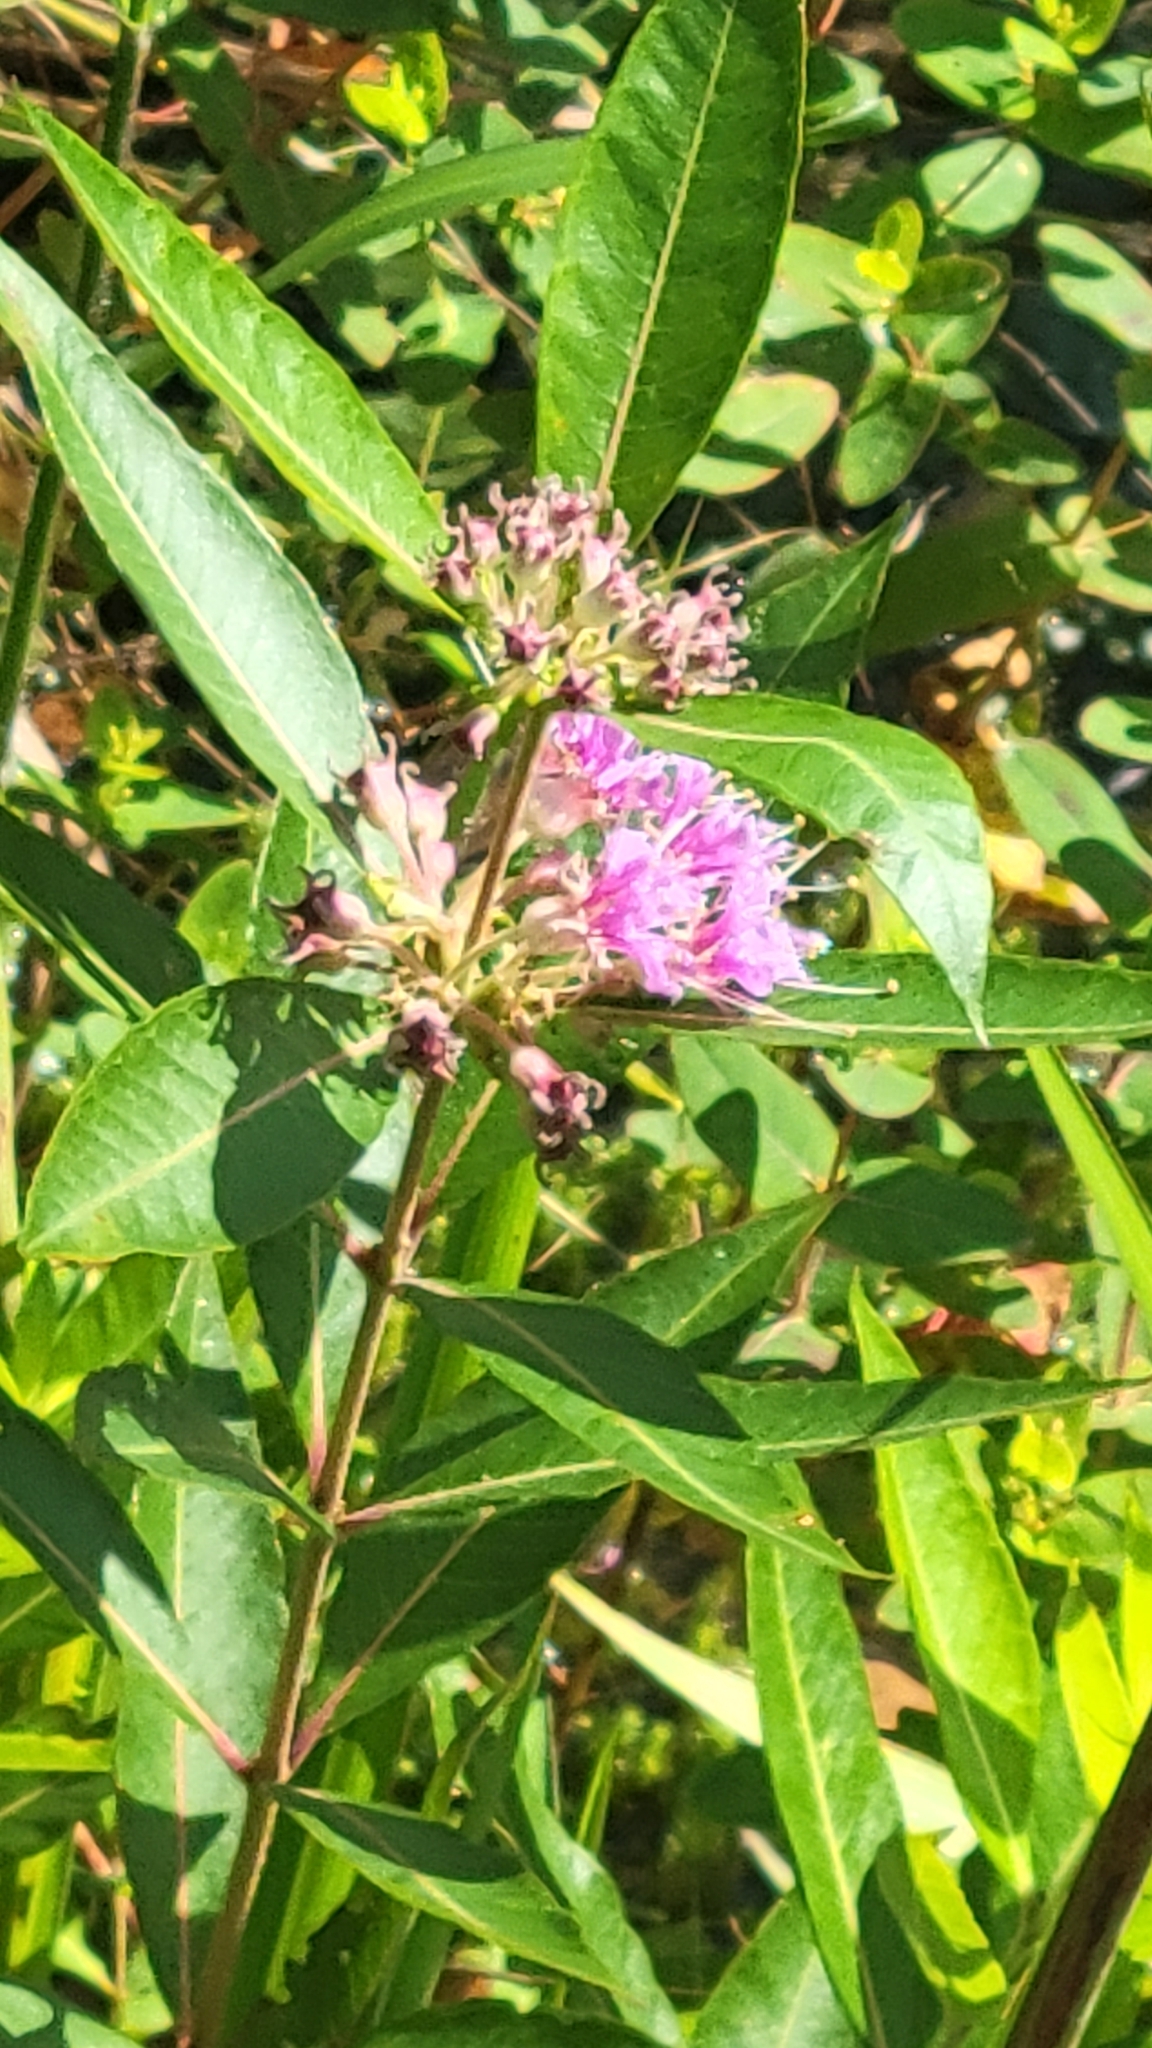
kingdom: Plantae
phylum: Tracheophyta
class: Magnoliopsida
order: Myrtales
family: Lythraceae
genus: Decodon
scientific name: Decodon verticillatus
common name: Hairy swamp loosestrife
